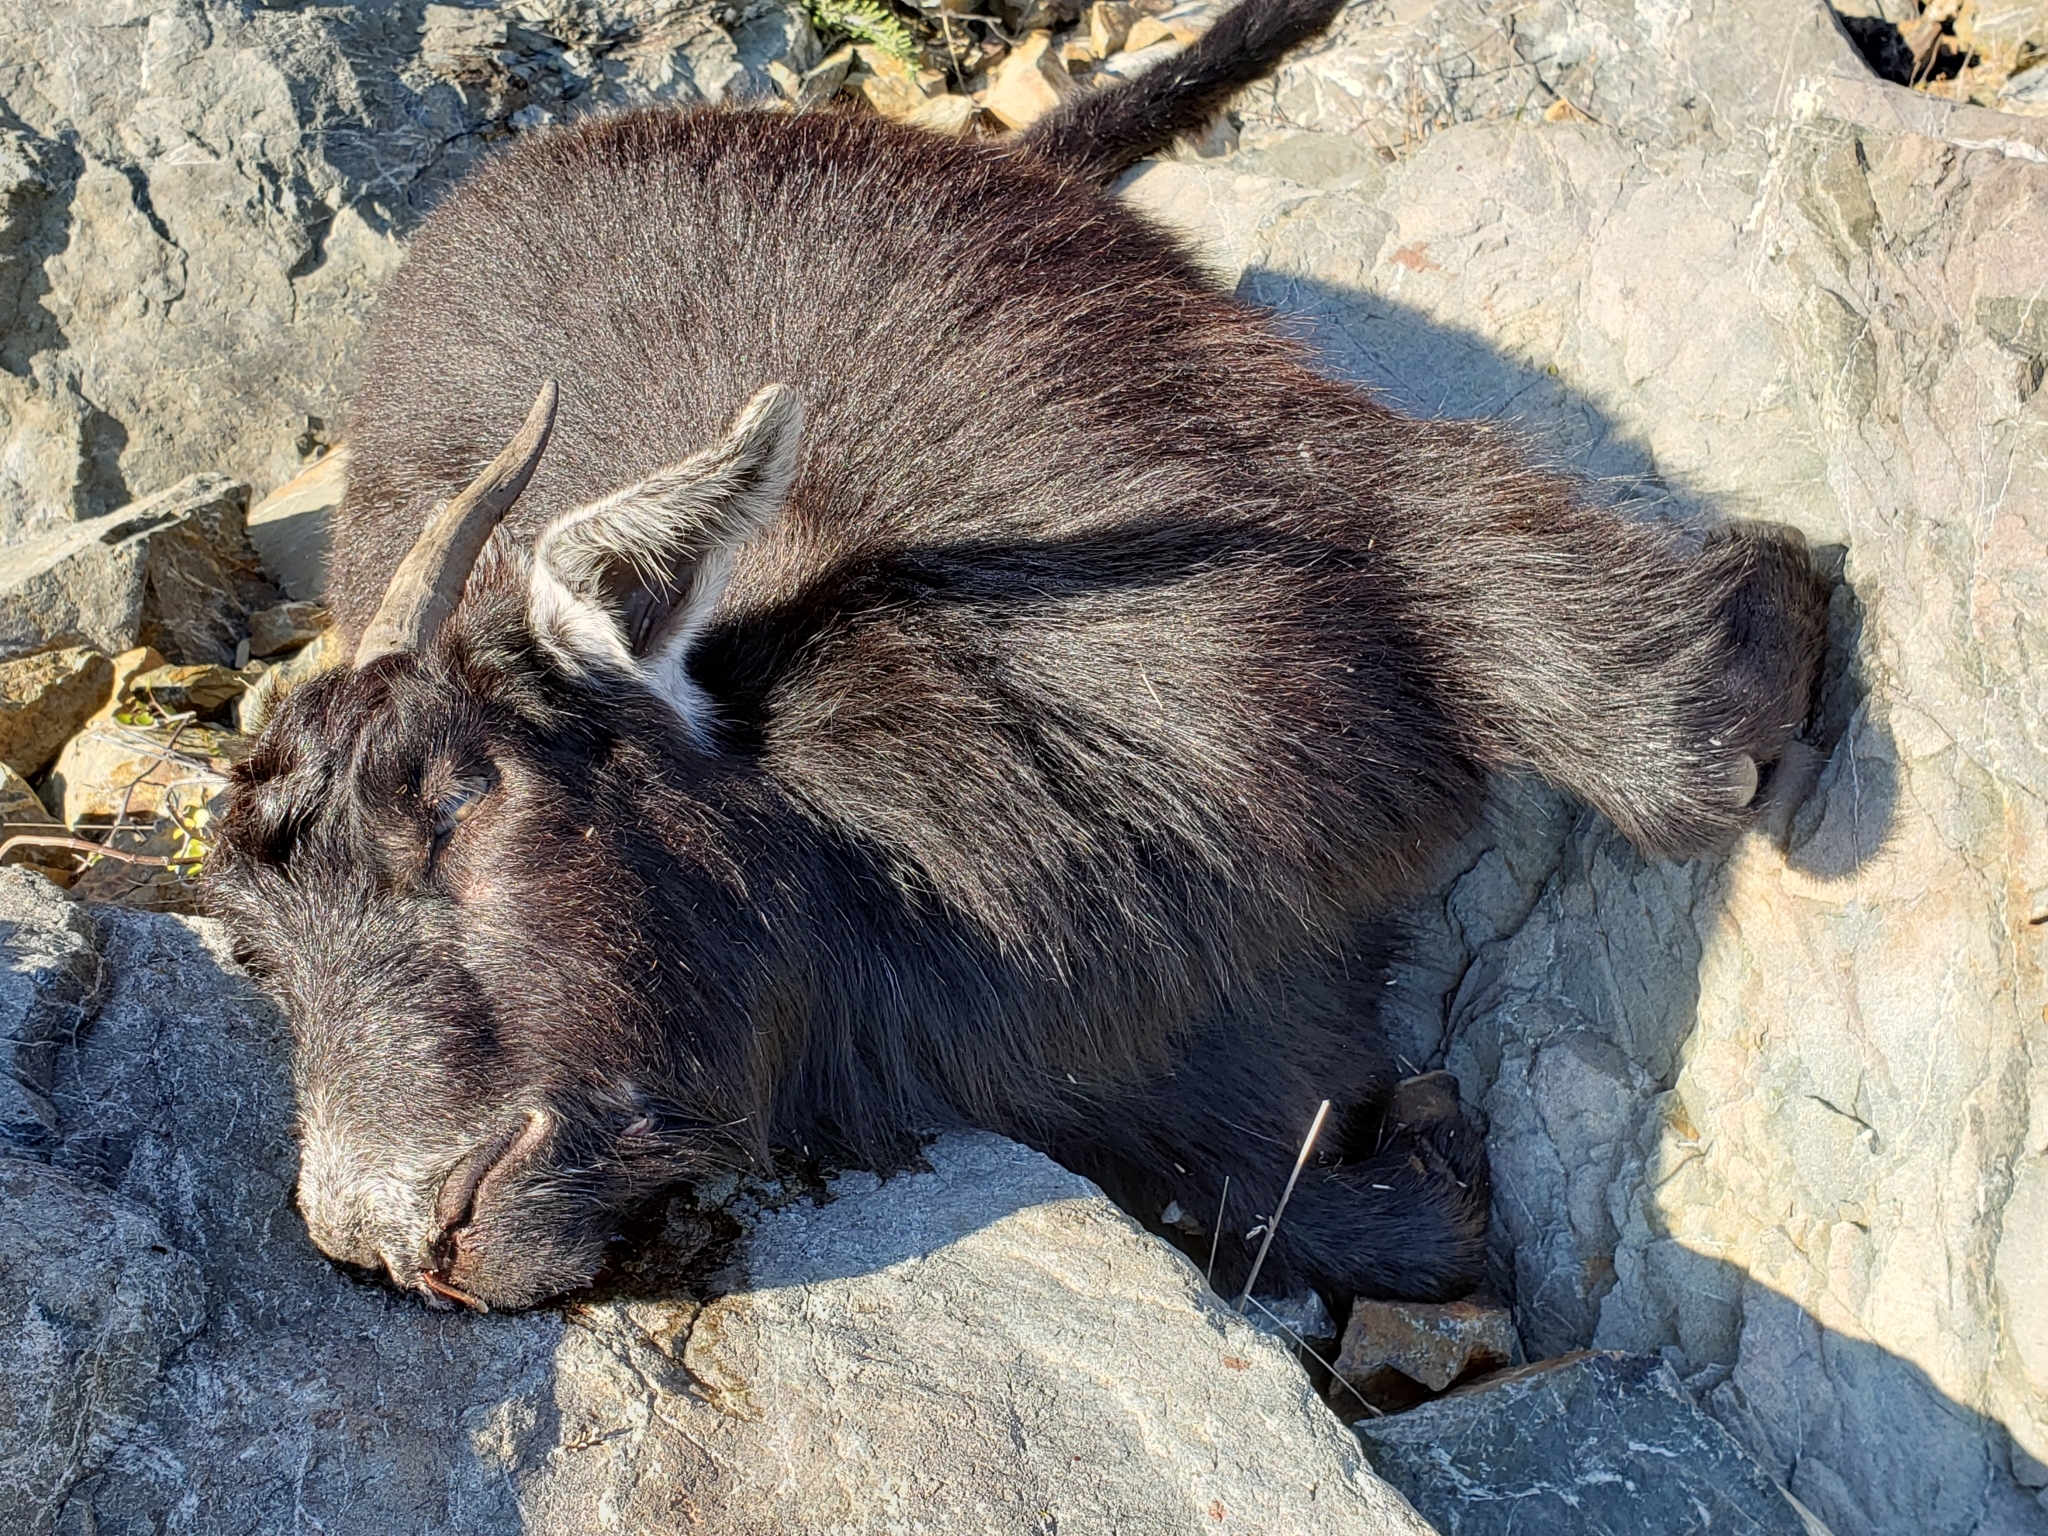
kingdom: Animalia
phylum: Chordata
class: Mammalia
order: Artiodactyla
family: Bovidae
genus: Capra
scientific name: Capra hircus
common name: Domestic goat
